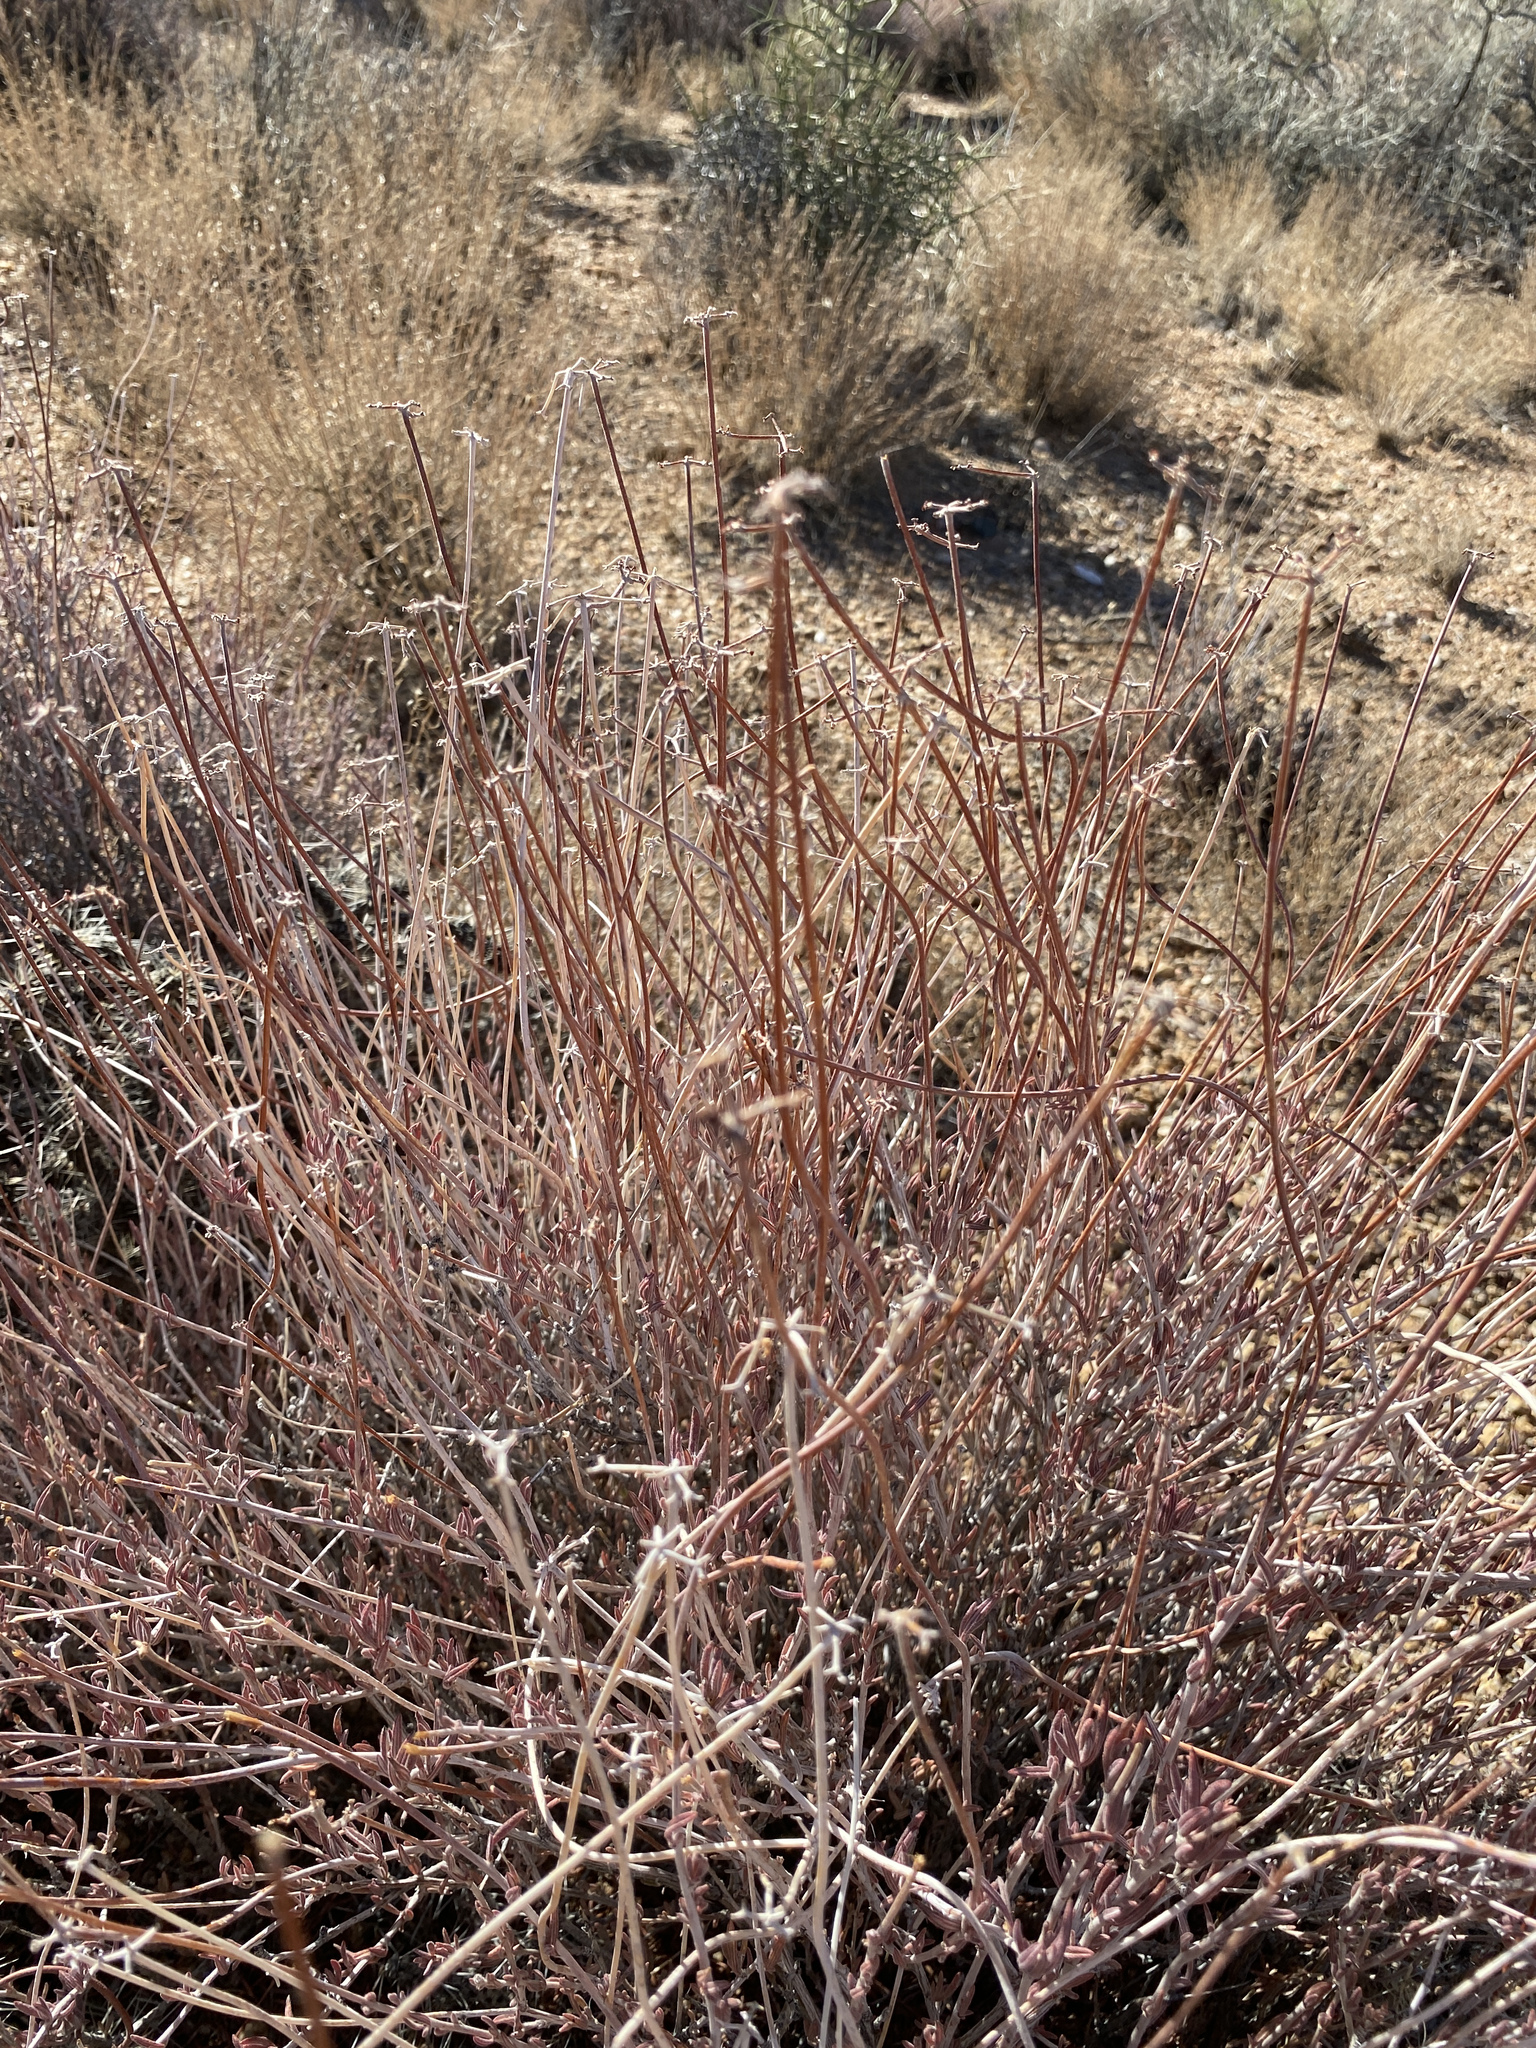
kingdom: Plantae
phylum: Tracheophyta
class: Magnoliopsida
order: Fabales
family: Fabaceae
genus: Acmispon
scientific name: Acmispon rigidus
